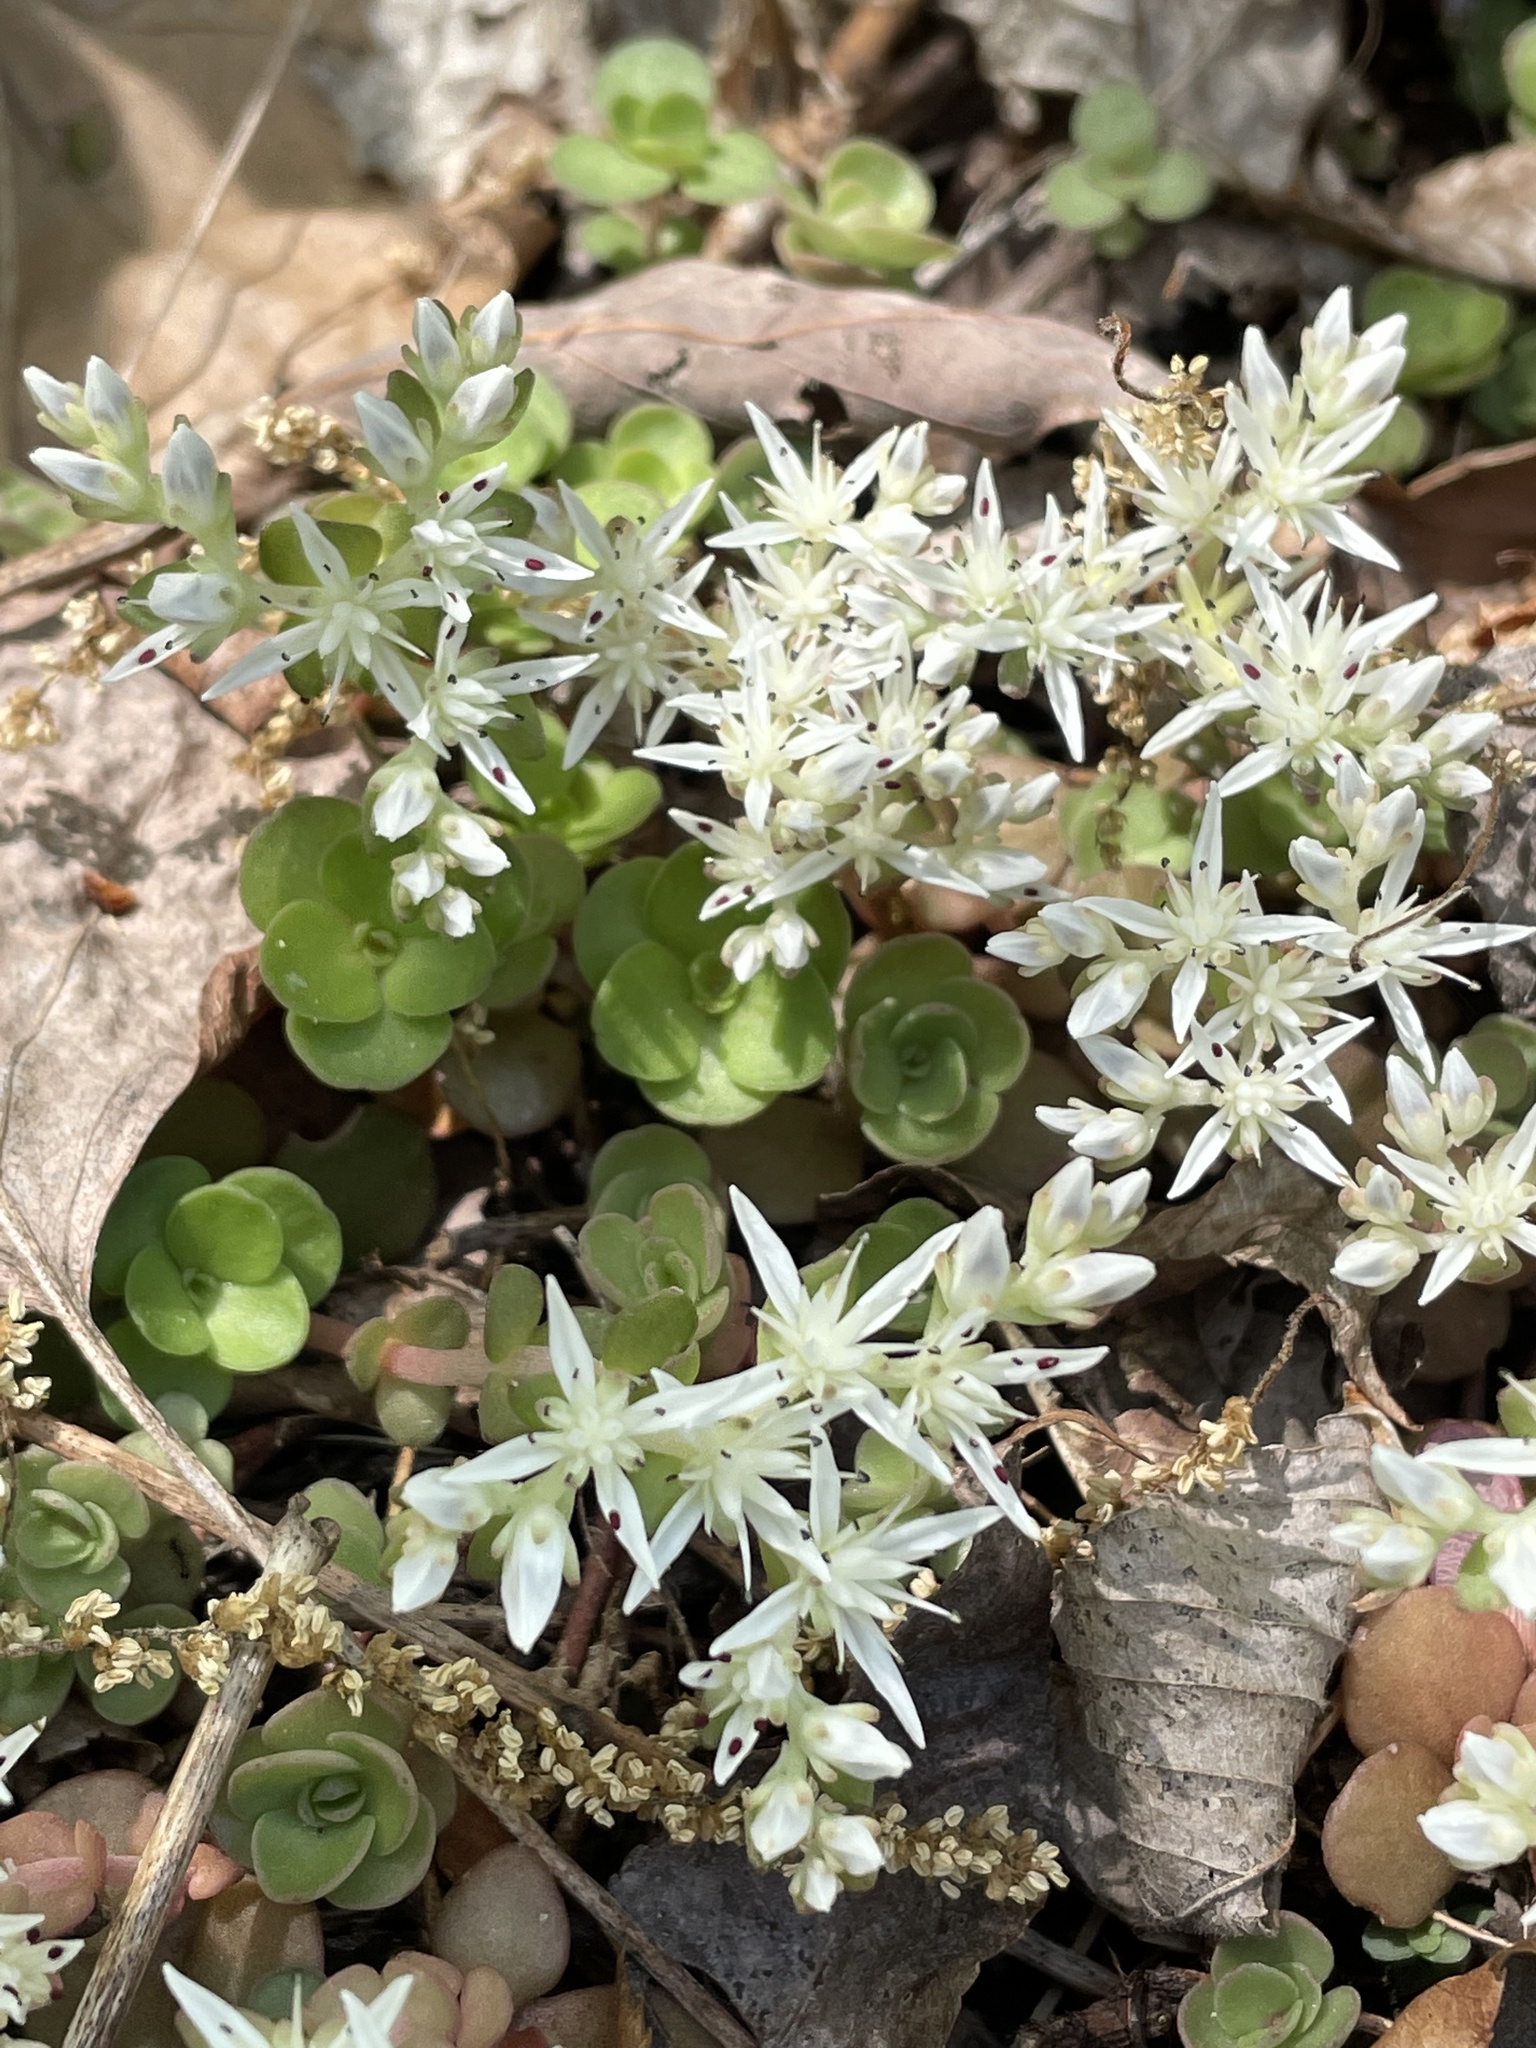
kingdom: Plantae
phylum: Tracheophyta
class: Magnoliopsida
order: Saxifragales
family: Crassulaceae
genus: Sedum
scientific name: Sedum ternatum
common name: Wild stonecrop
